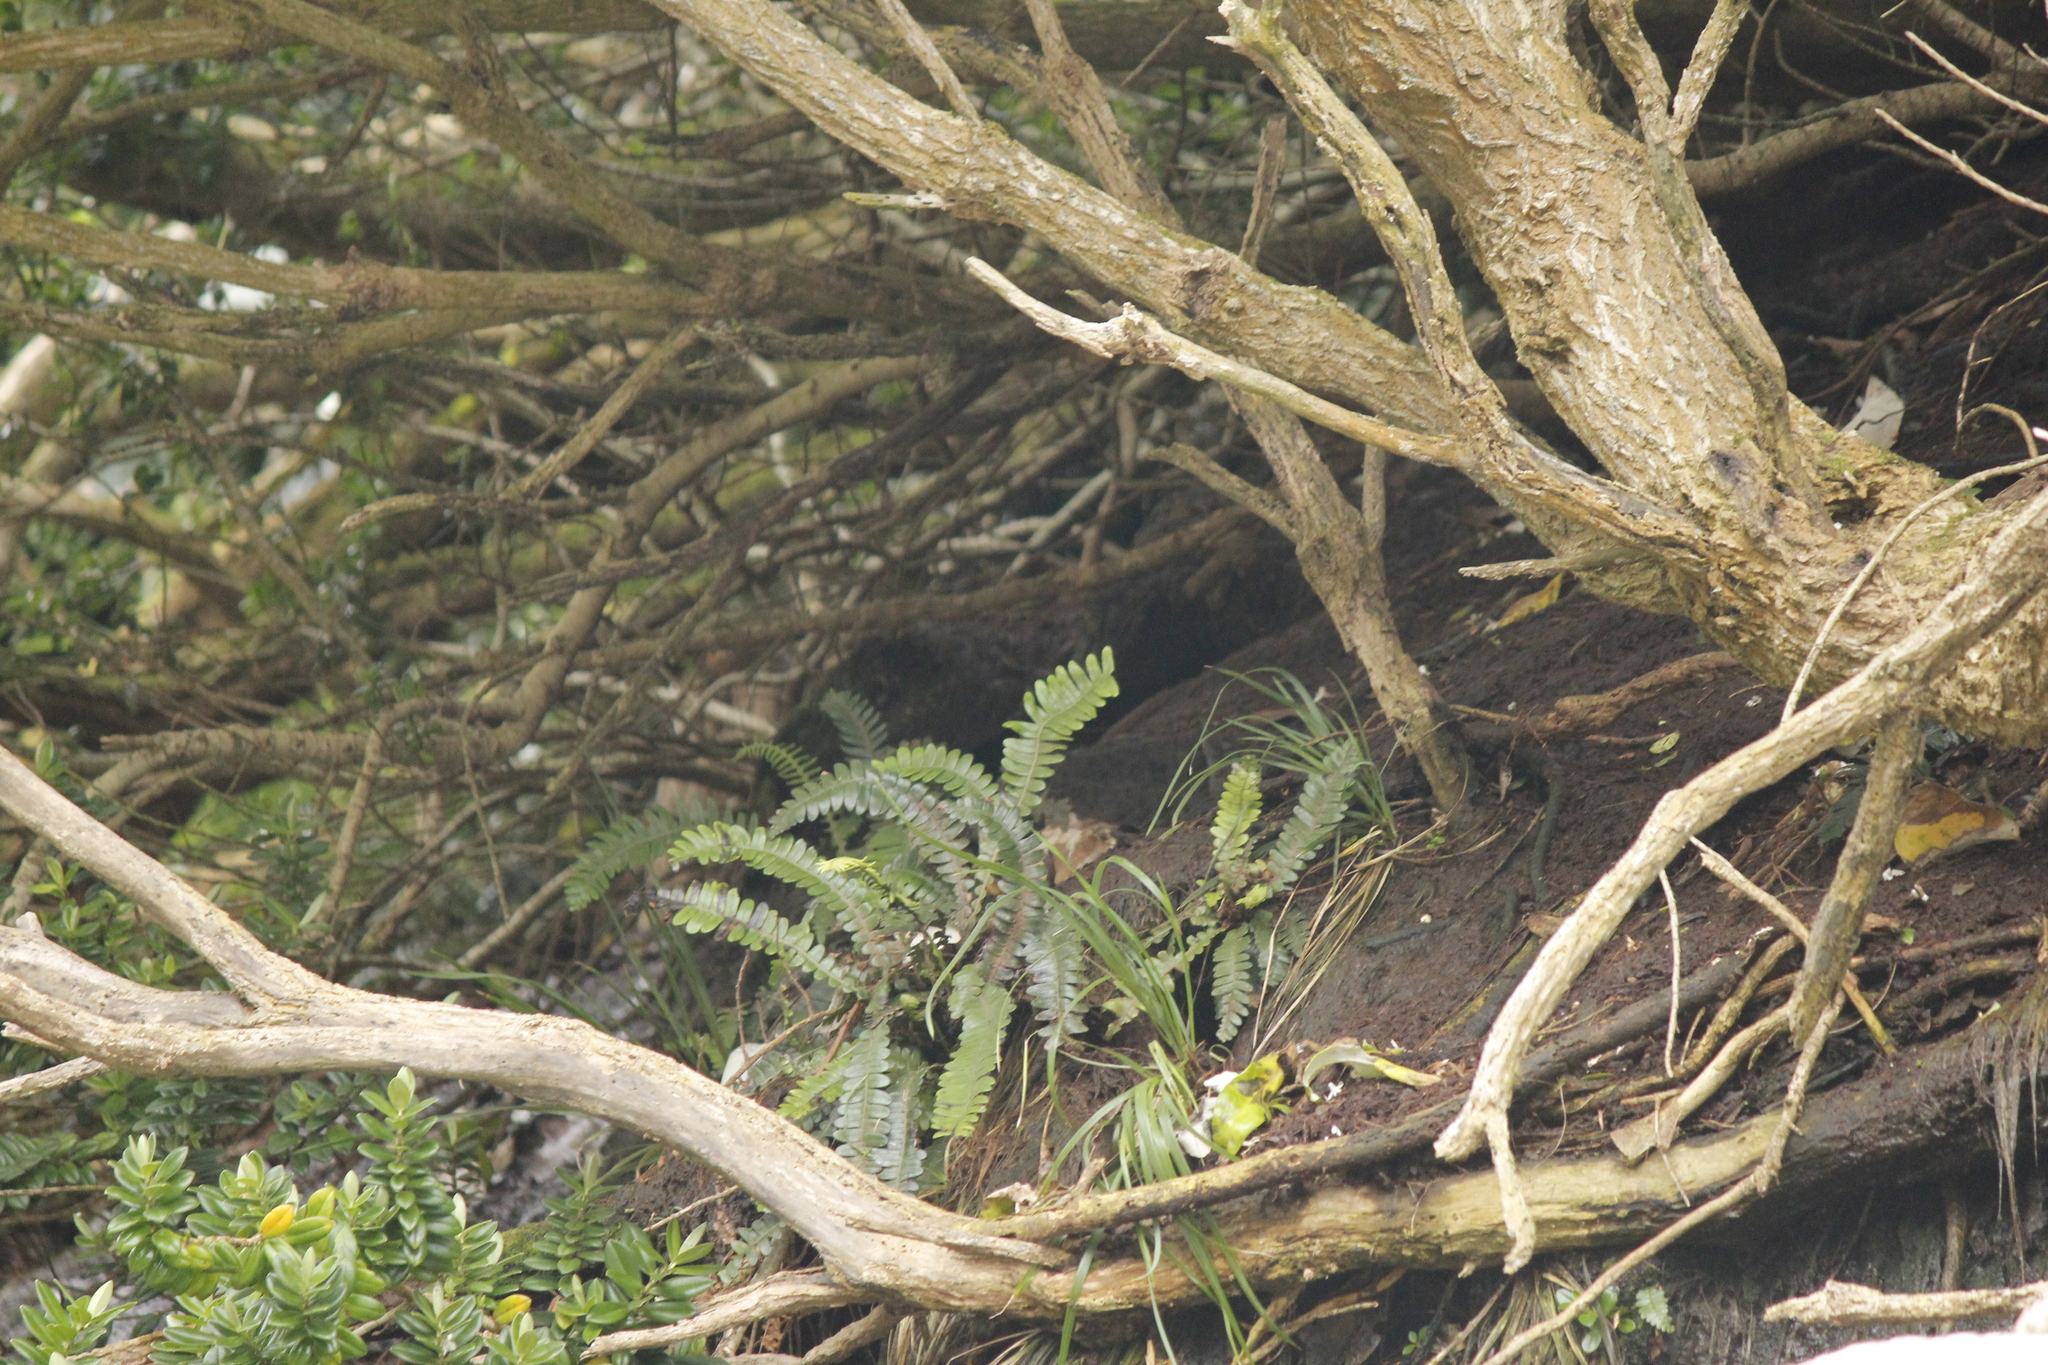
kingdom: Plantae
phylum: Tracheophyta
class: Polypodiopsida
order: Polypodiales
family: Blechnaceae
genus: Austroblechnum
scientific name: Austroblechnum durum
